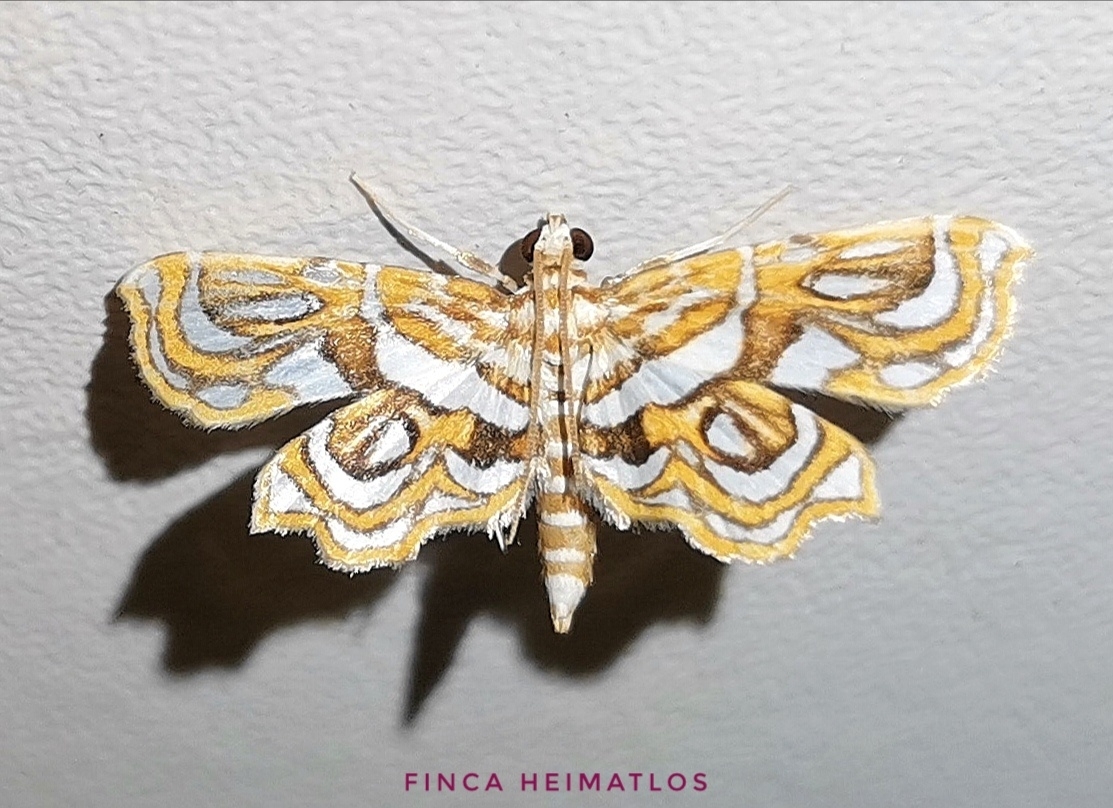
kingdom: Animalia
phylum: Arthropoda
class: Insecta
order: Lepidoptera
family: Pyralidae
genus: Undulambia
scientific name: Undulambia polystichalis
